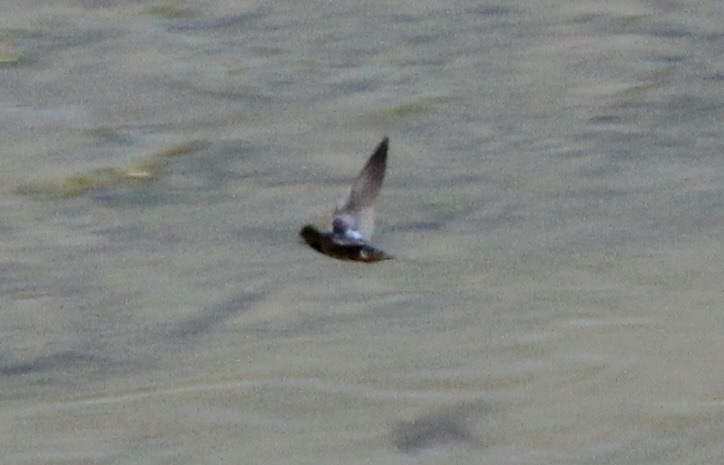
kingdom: Animalia
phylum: Chordata
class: Aves
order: Passeriformes
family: Hirundinidae
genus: Hirundo
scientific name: Hirundo rustica
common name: Barn swallow
